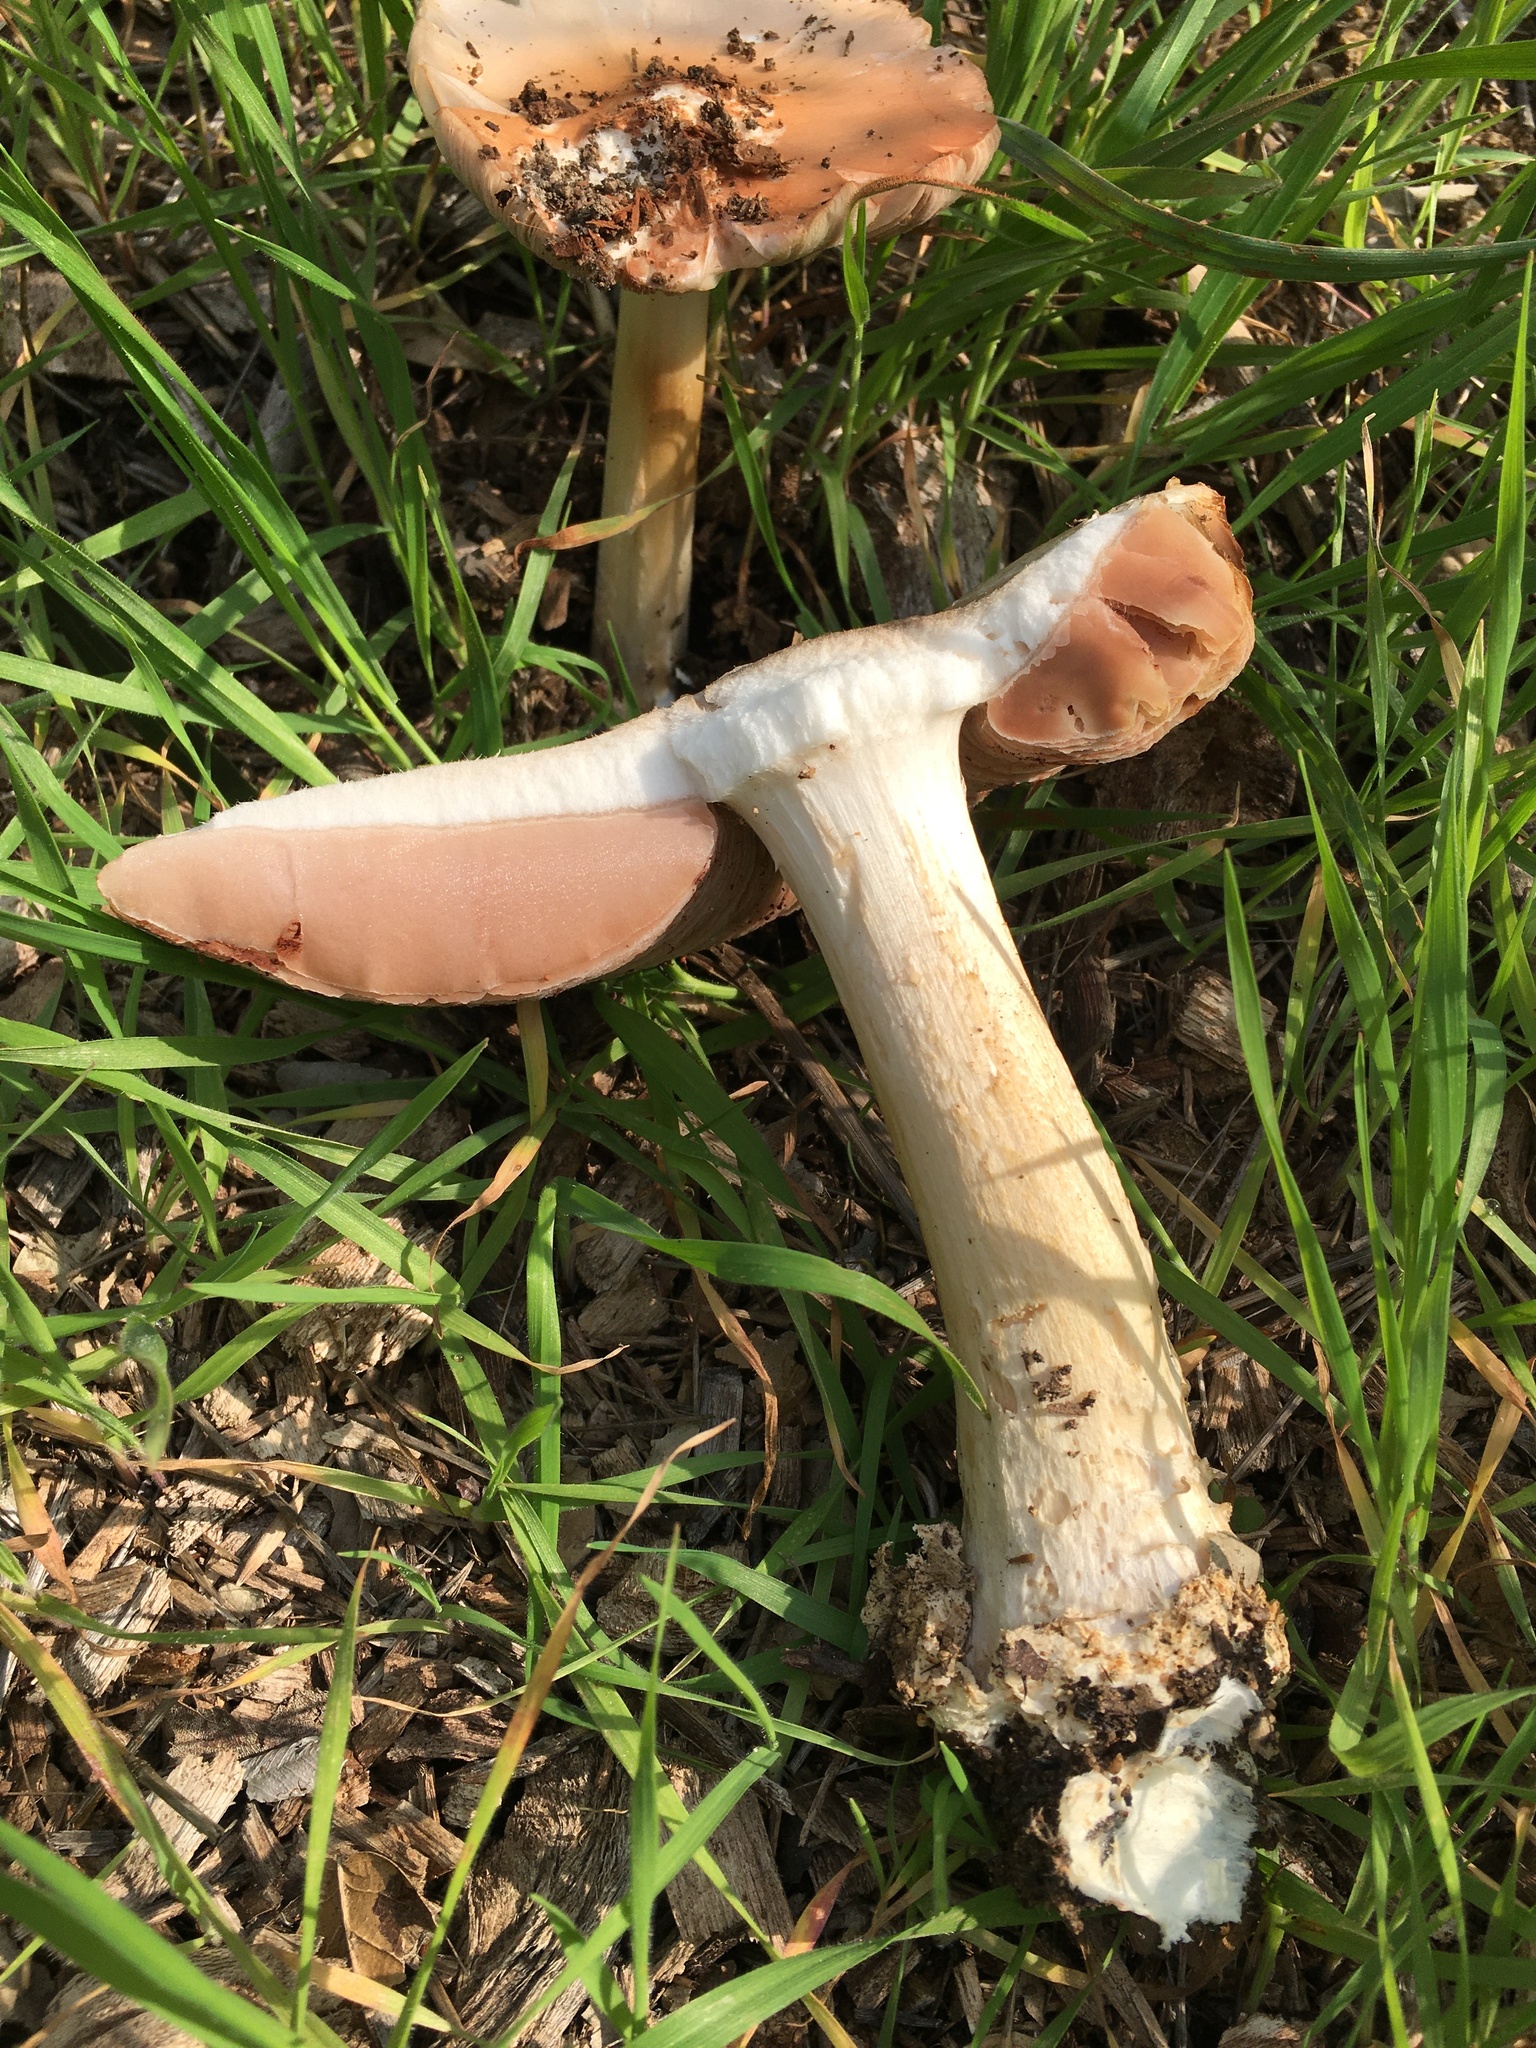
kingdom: Fungi
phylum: Basidiomycota
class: Agaricomycetes
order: Agaricales
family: Pluteaceae
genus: Volvopluteus
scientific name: Volvopluteus gloiocephalus
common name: Stubble rosegill
